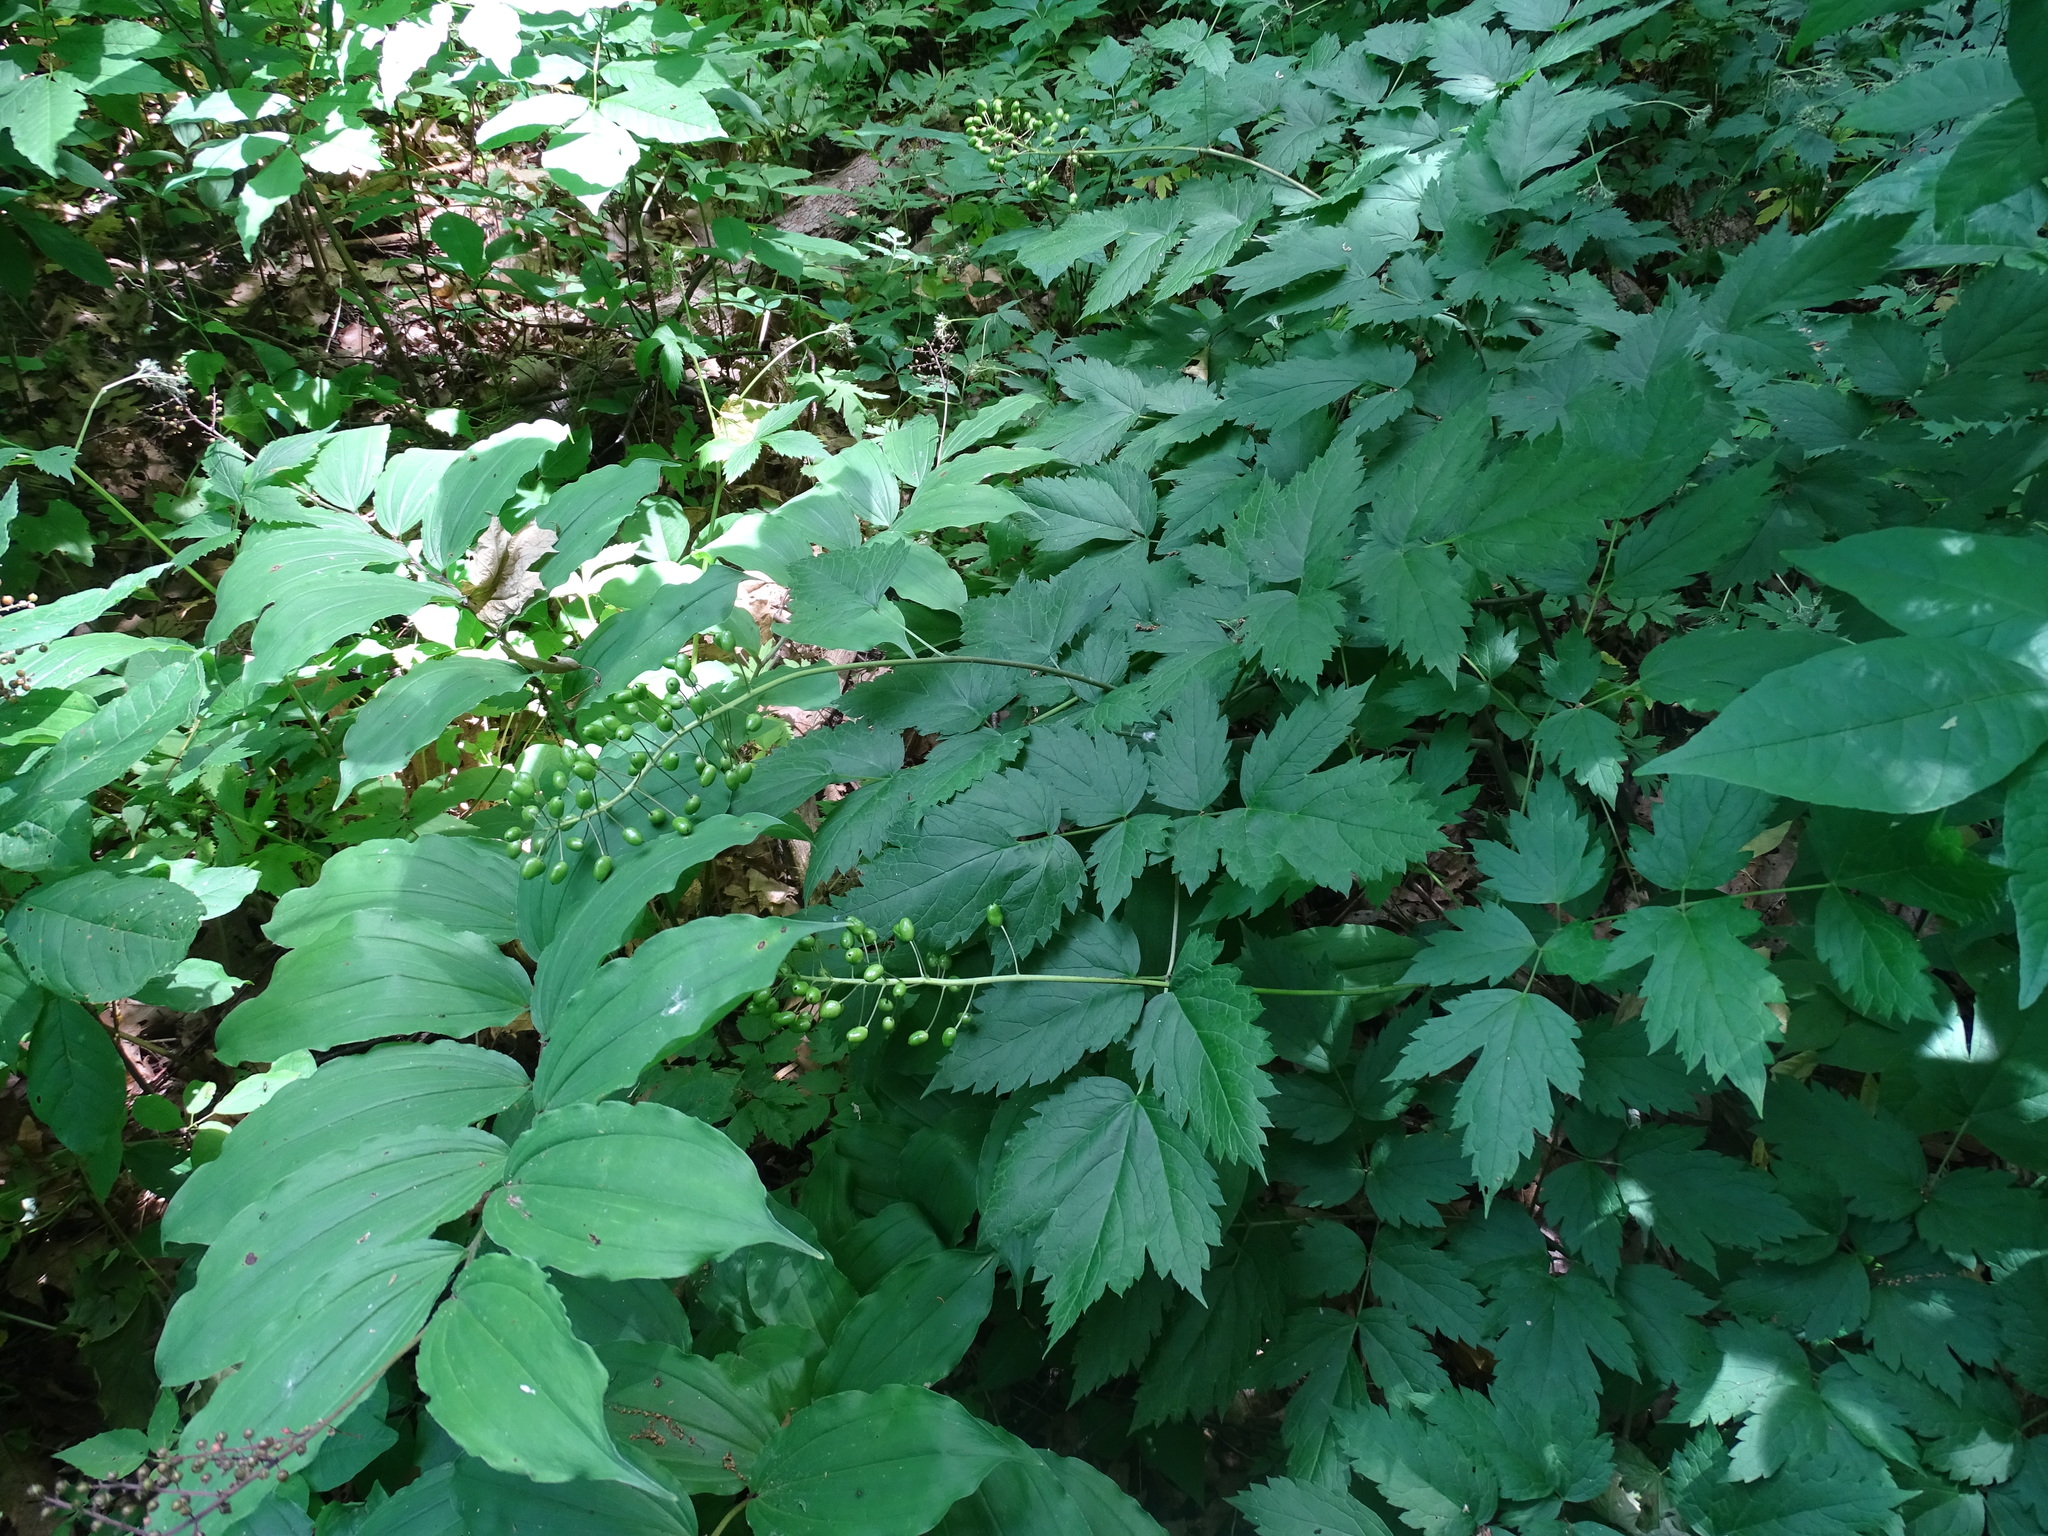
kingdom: Plantae
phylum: Tracheophyta
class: Magnoliopsida
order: Ranunculales
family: Ranunculaceae
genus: Actaea
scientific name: Actaea rubra
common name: Red baneberry
